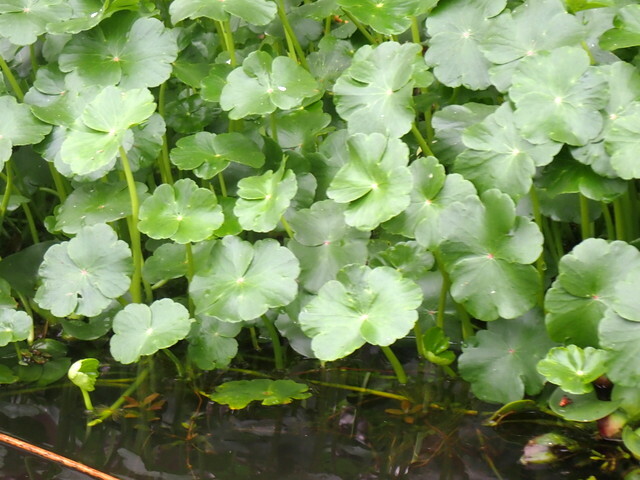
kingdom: Plantae
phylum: Tracheophyta
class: Magnoliopsida
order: Apiales
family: Araliaceae
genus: Hydrocotyle
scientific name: Hydrocotyle ranunculoides
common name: Floating pennywort
